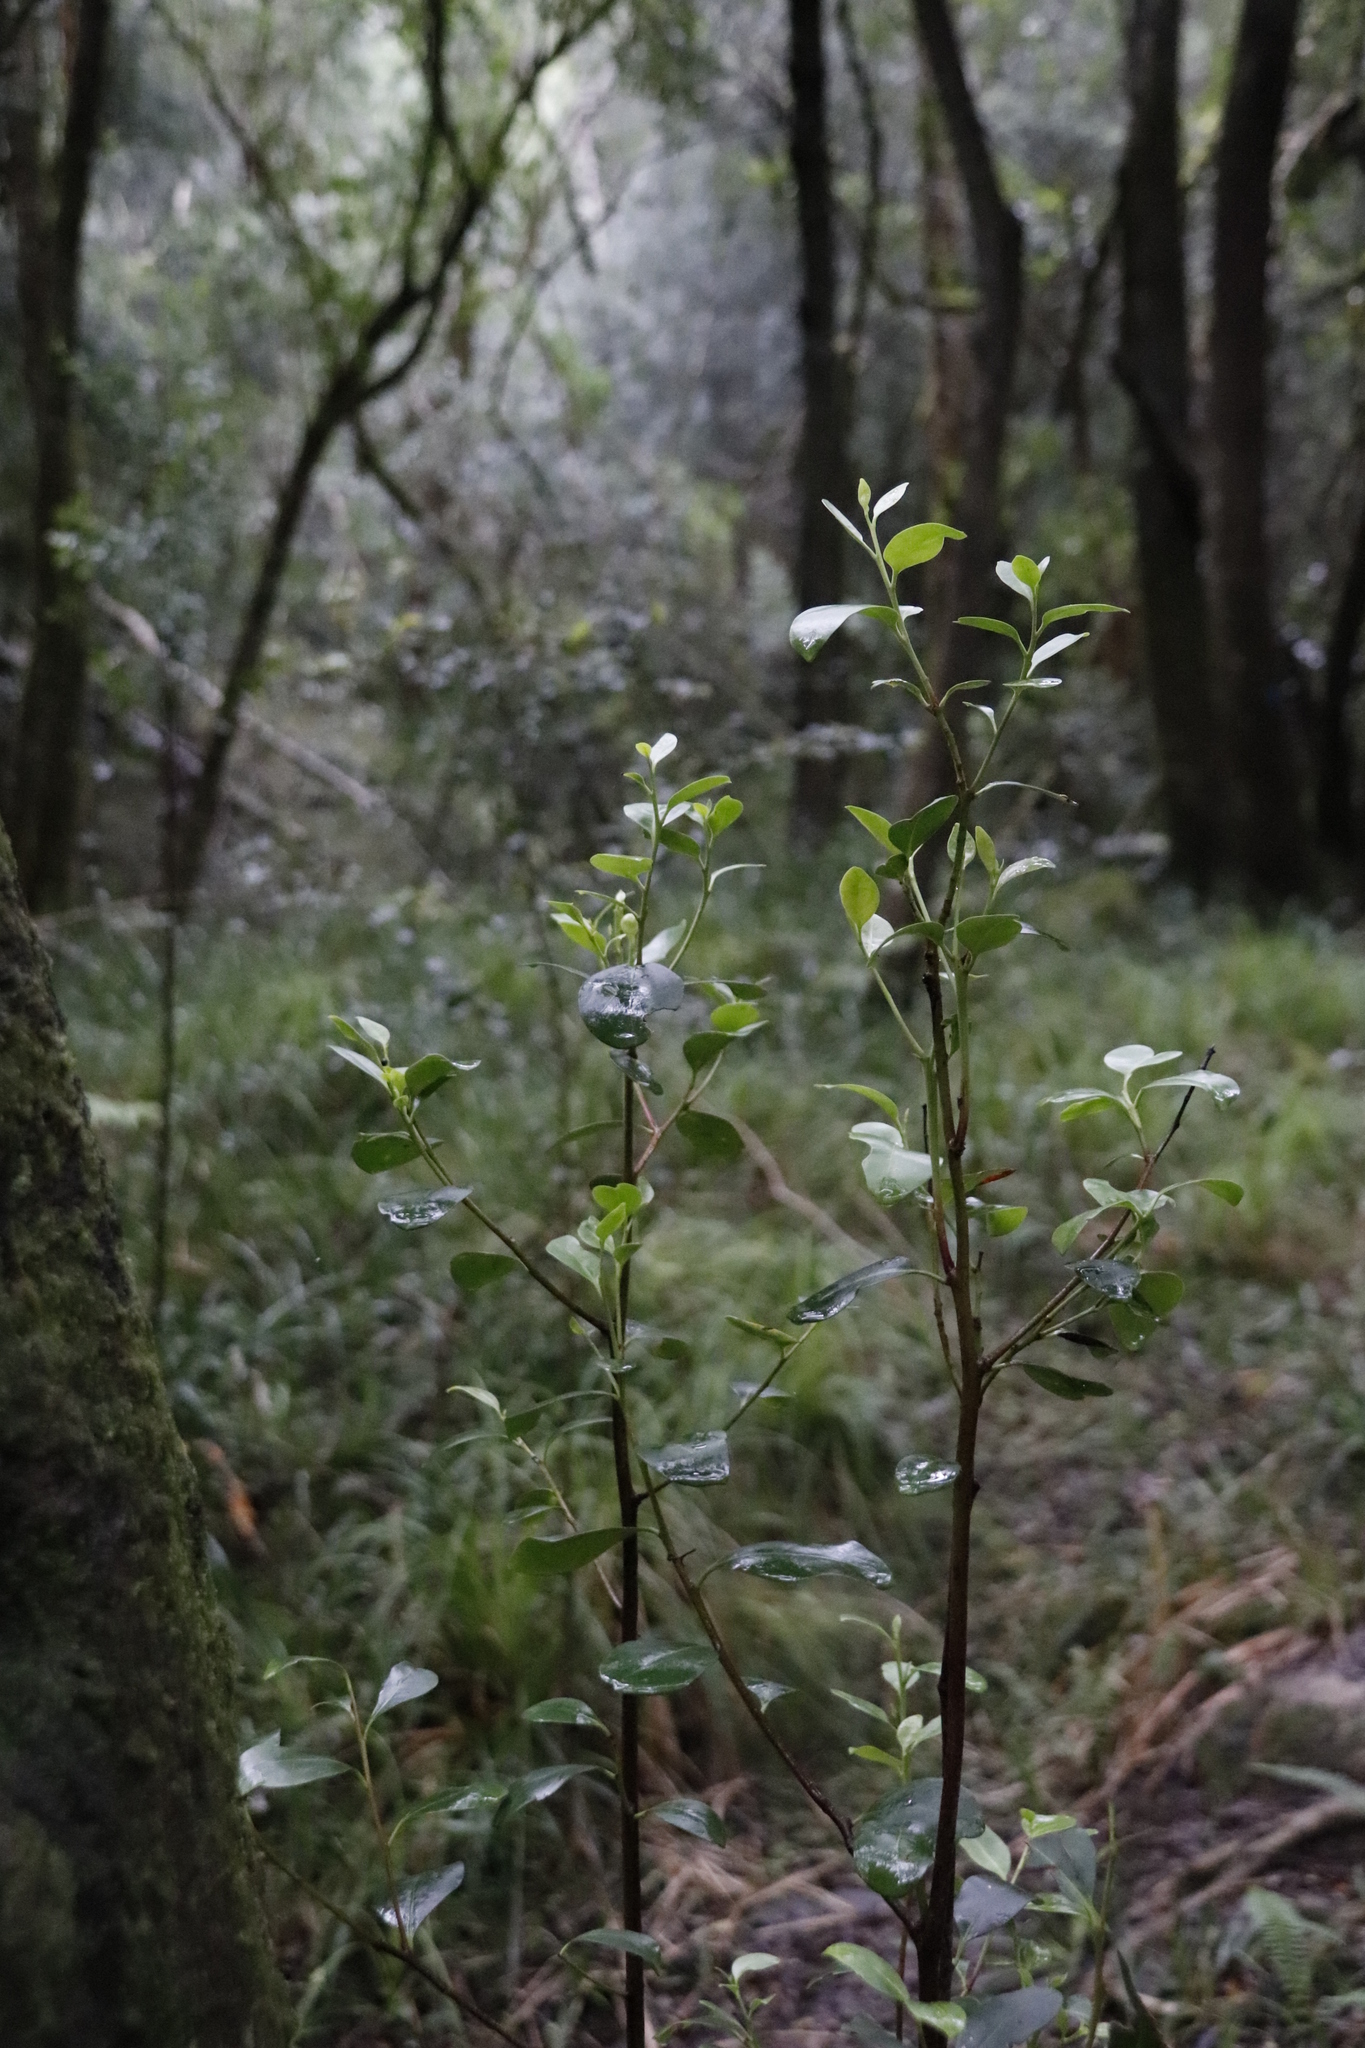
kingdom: Plantae
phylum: Tracheophyta
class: Magnoliopsida
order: Celastrales
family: Celastraceae
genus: Pterocelastrus
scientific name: Pterocelastrus tricuspidatus
